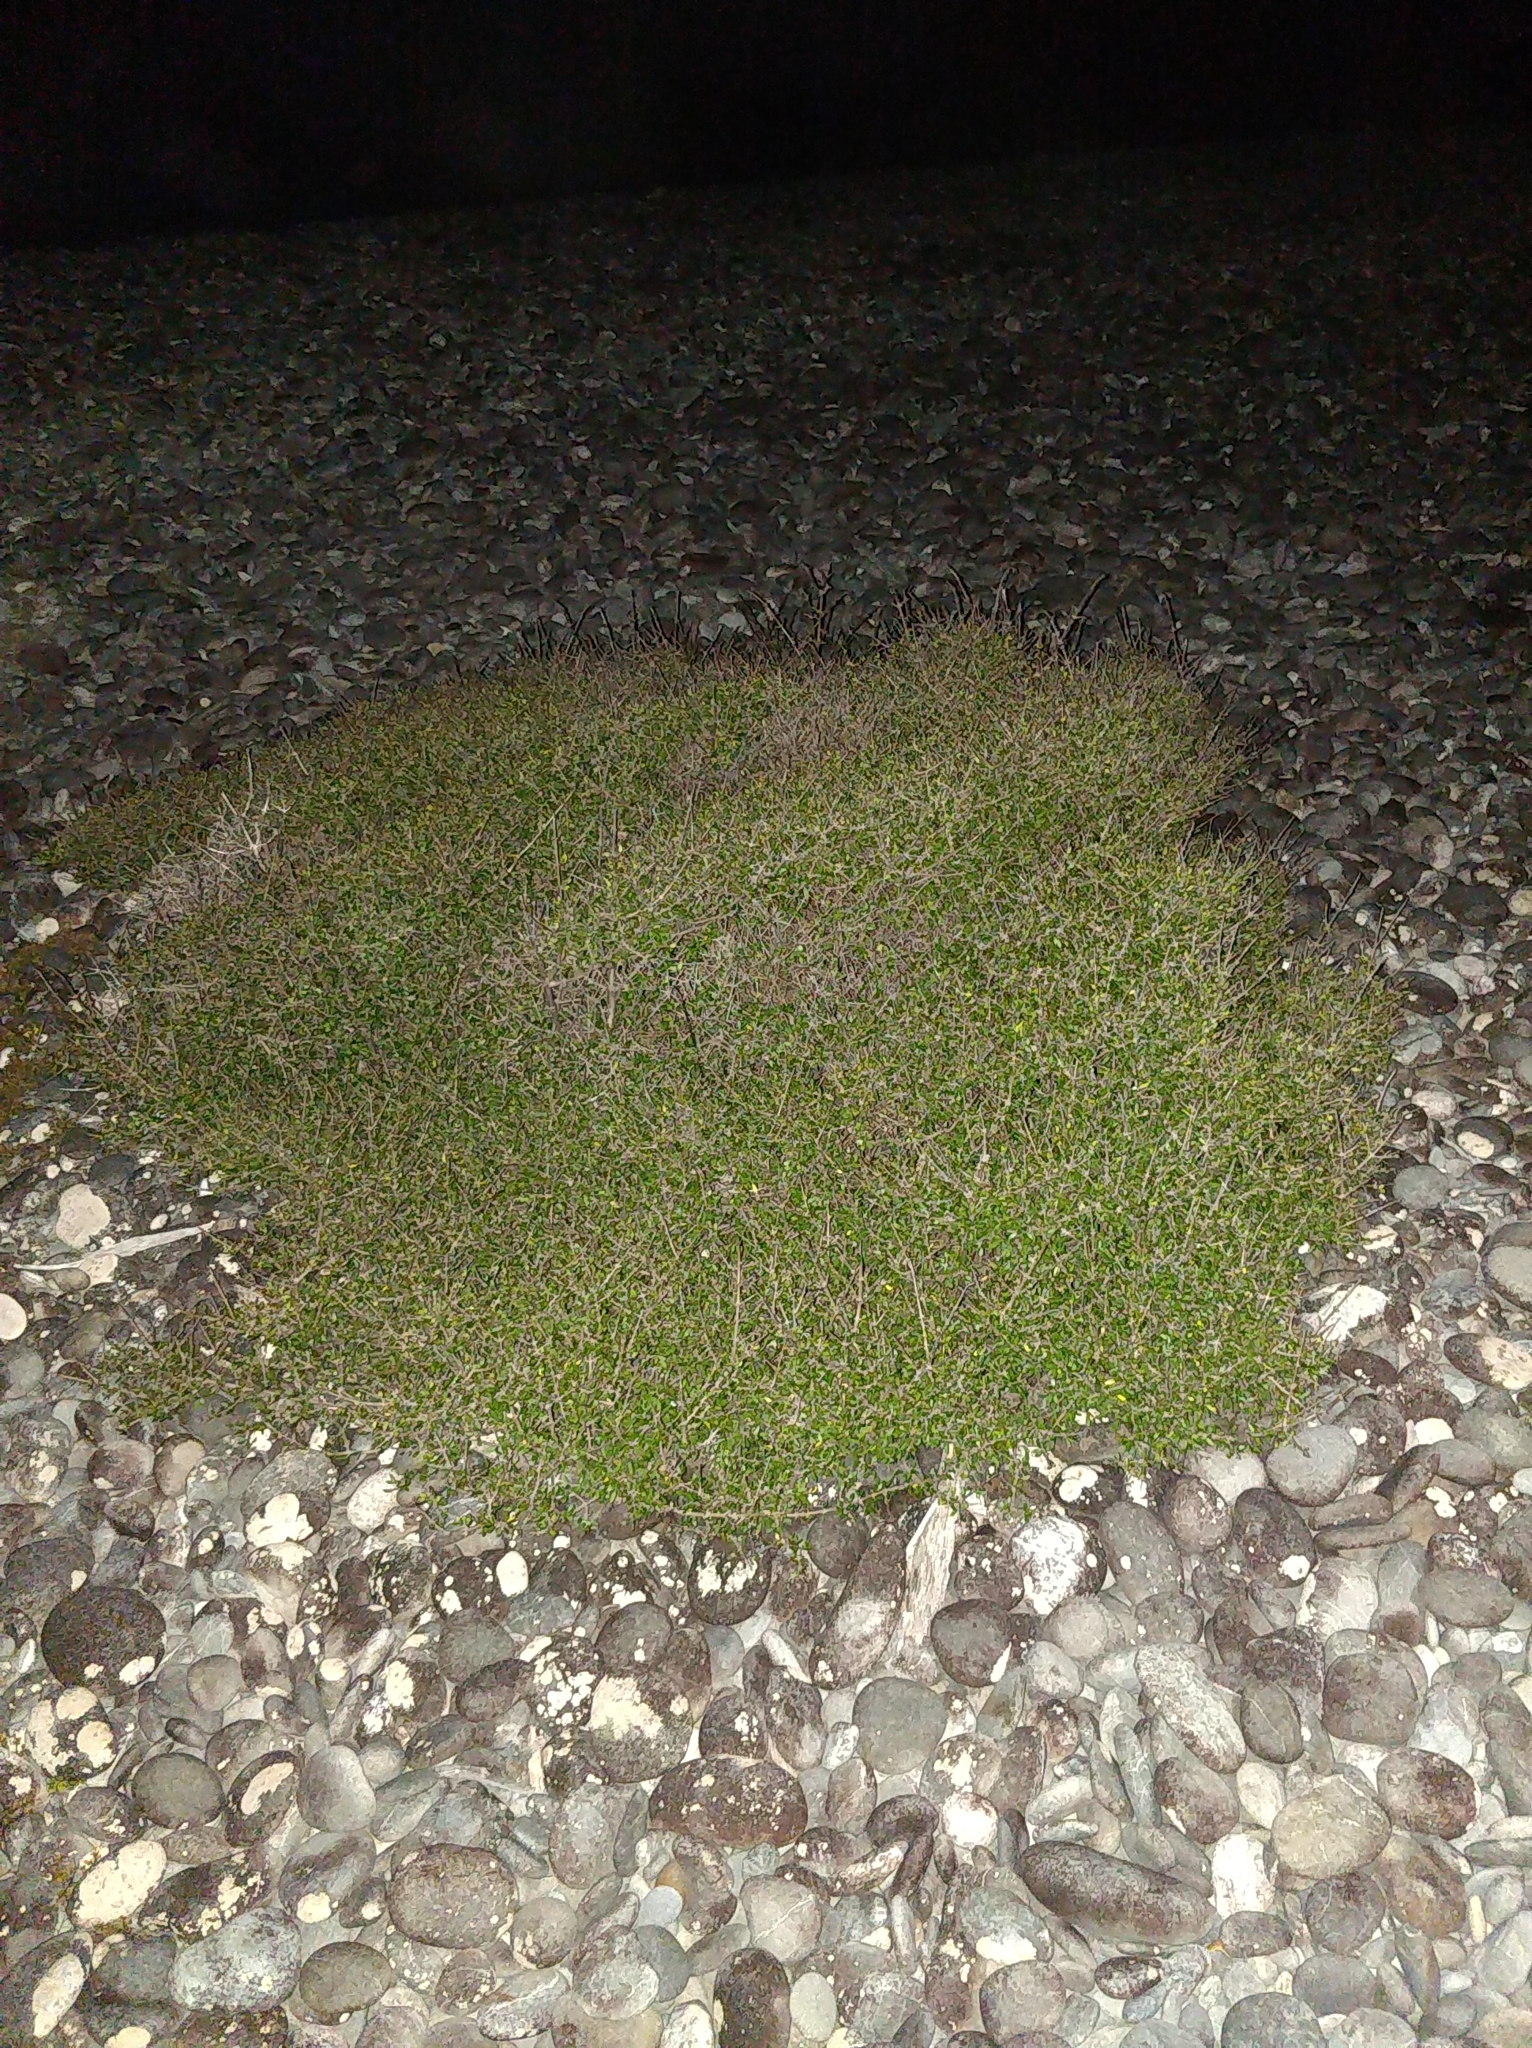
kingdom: Plantae
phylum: Tracheophyta
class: Magnoliopsida
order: Gentianales
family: Rubiaceae
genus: Coprosma
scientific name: Coprosma propinqua
